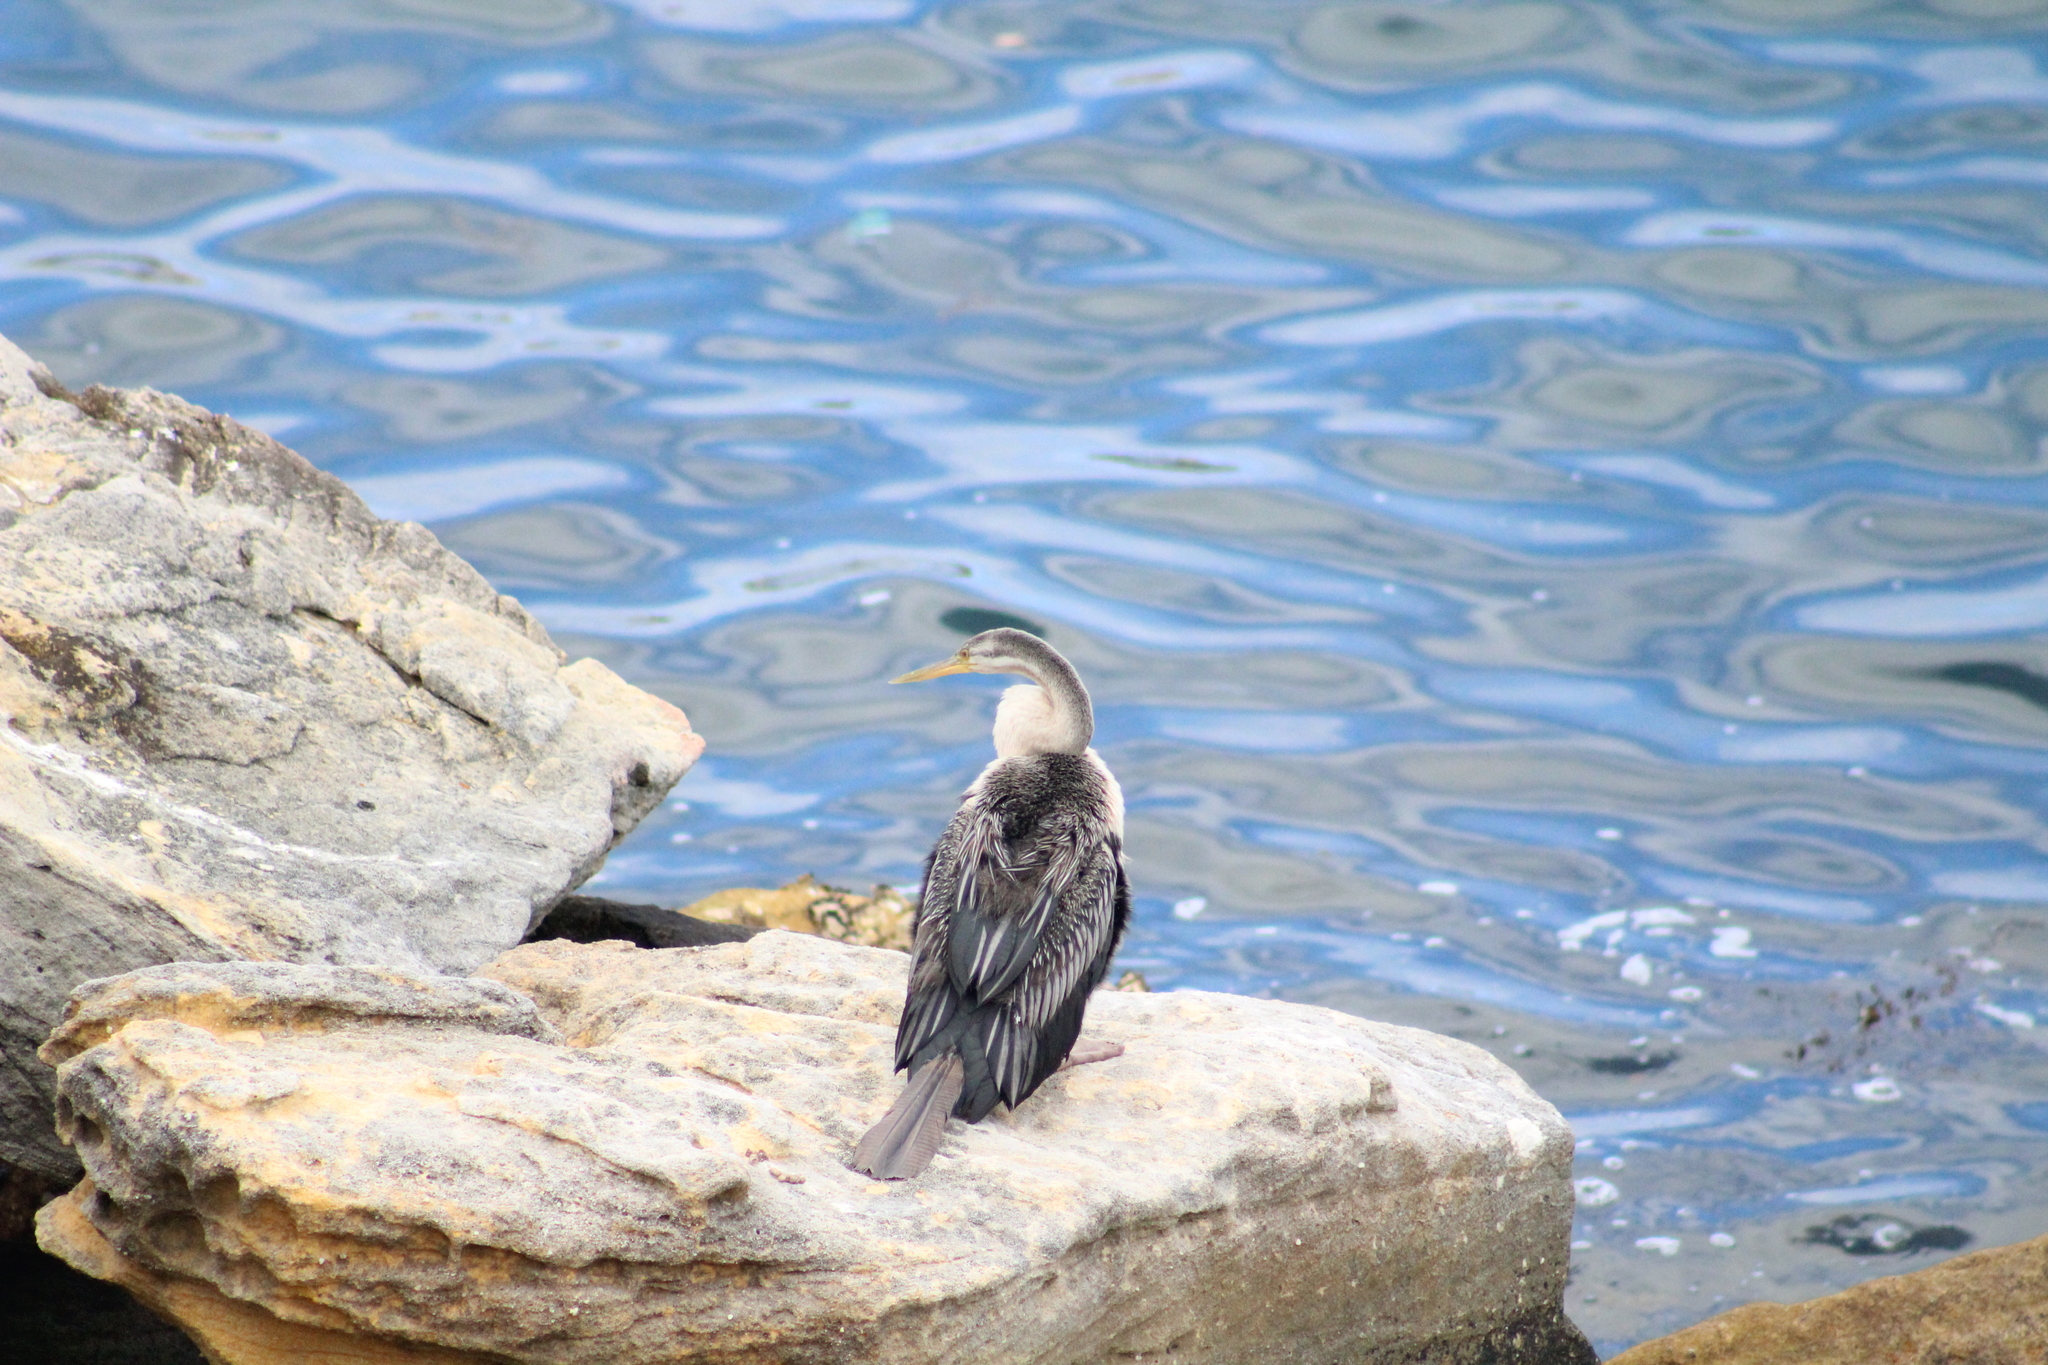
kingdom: Animalia
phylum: Chordata
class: Aves
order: Suliformes
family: Anhingidae
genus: Anhinga
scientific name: Anhinga novaehollandiae
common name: Australasian darter
